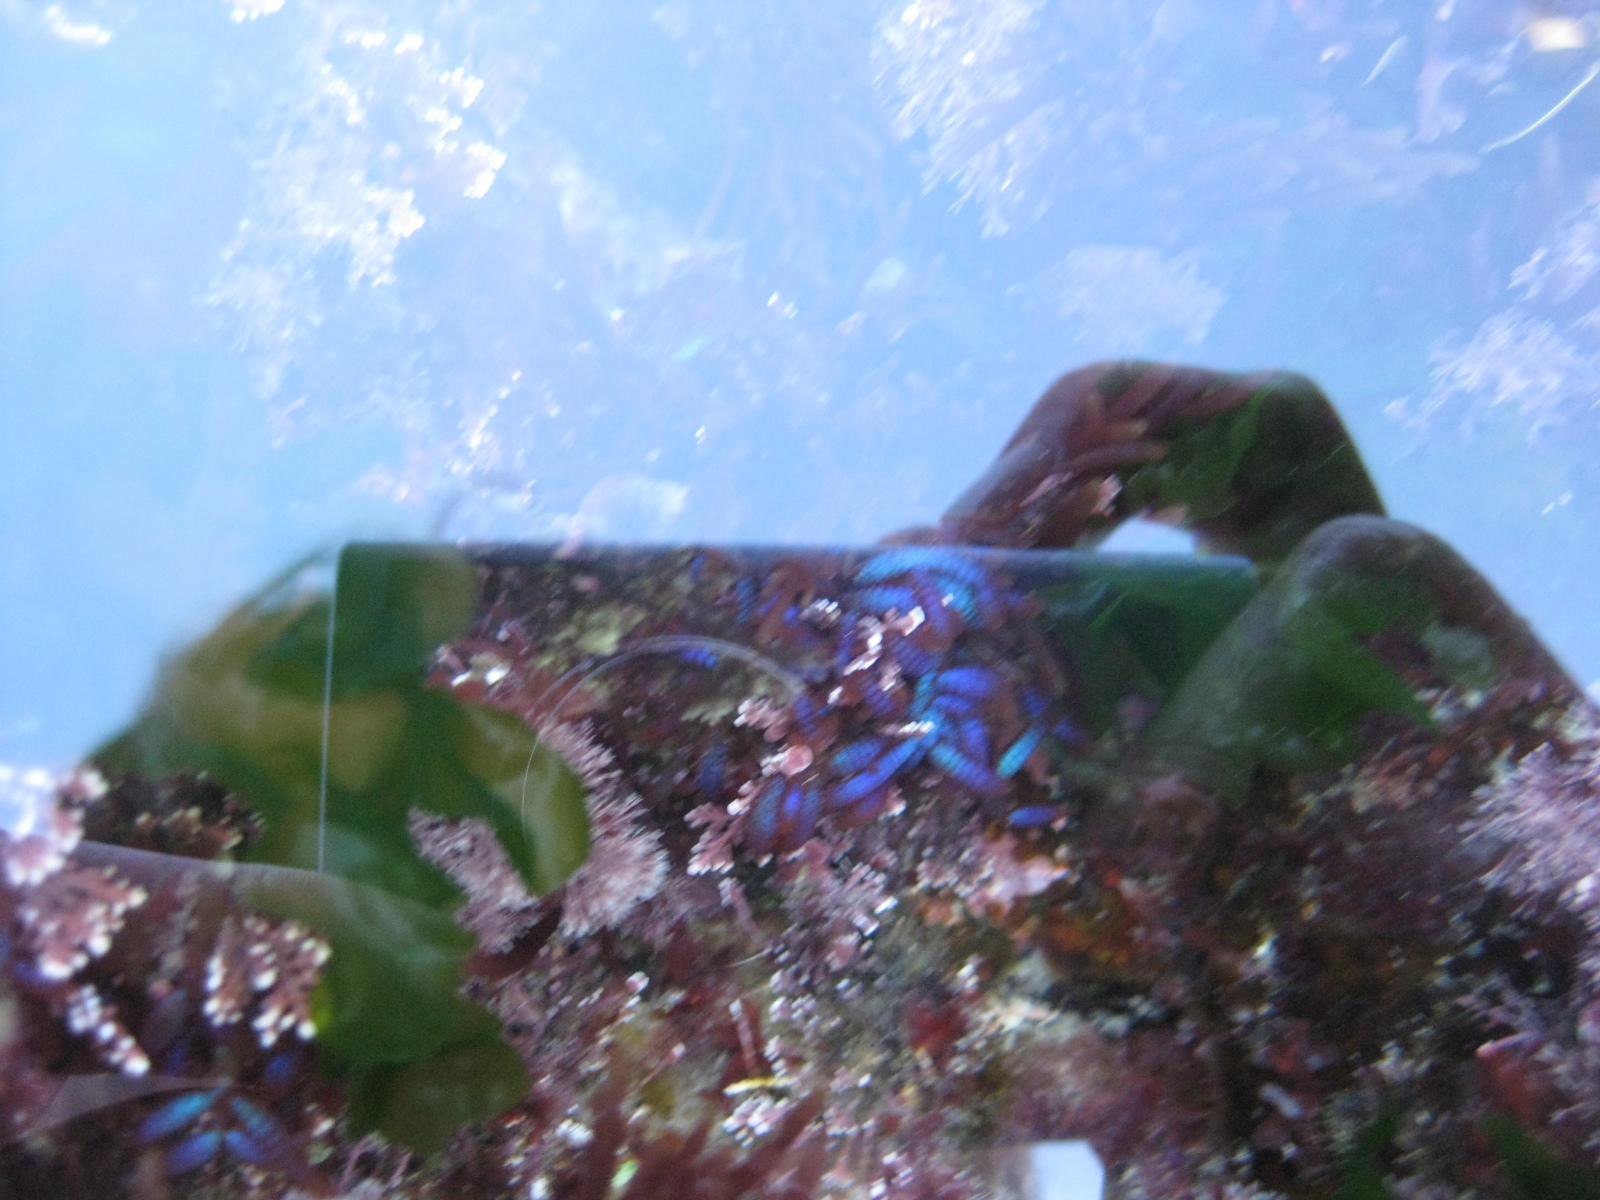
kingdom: Plantae
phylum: Rhodophyta
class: Florideophyceae
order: Rhodymeniales
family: Champiaceae
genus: Champia
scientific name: Champia laingii
